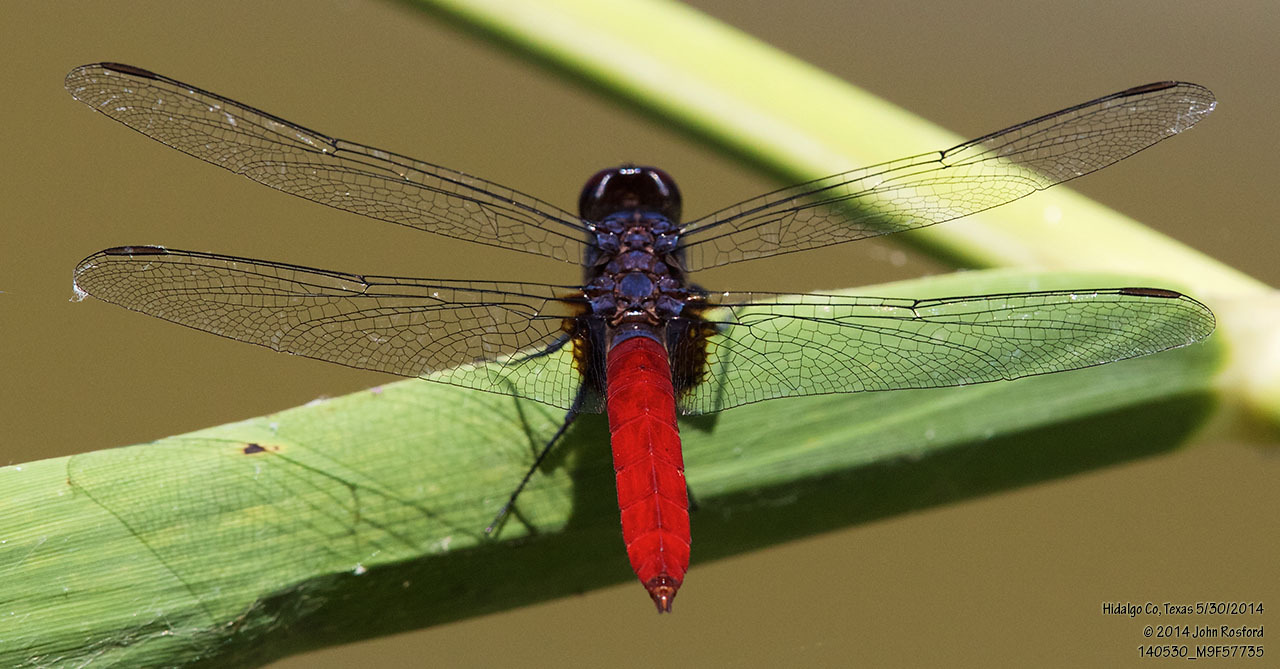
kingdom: Animalia
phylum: Arthropoda
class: Insecta
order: Odonata
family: Libellulidae
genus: Planiplax
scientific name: Planiplax sanguiniventris
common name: Mexican scarlet-tail
